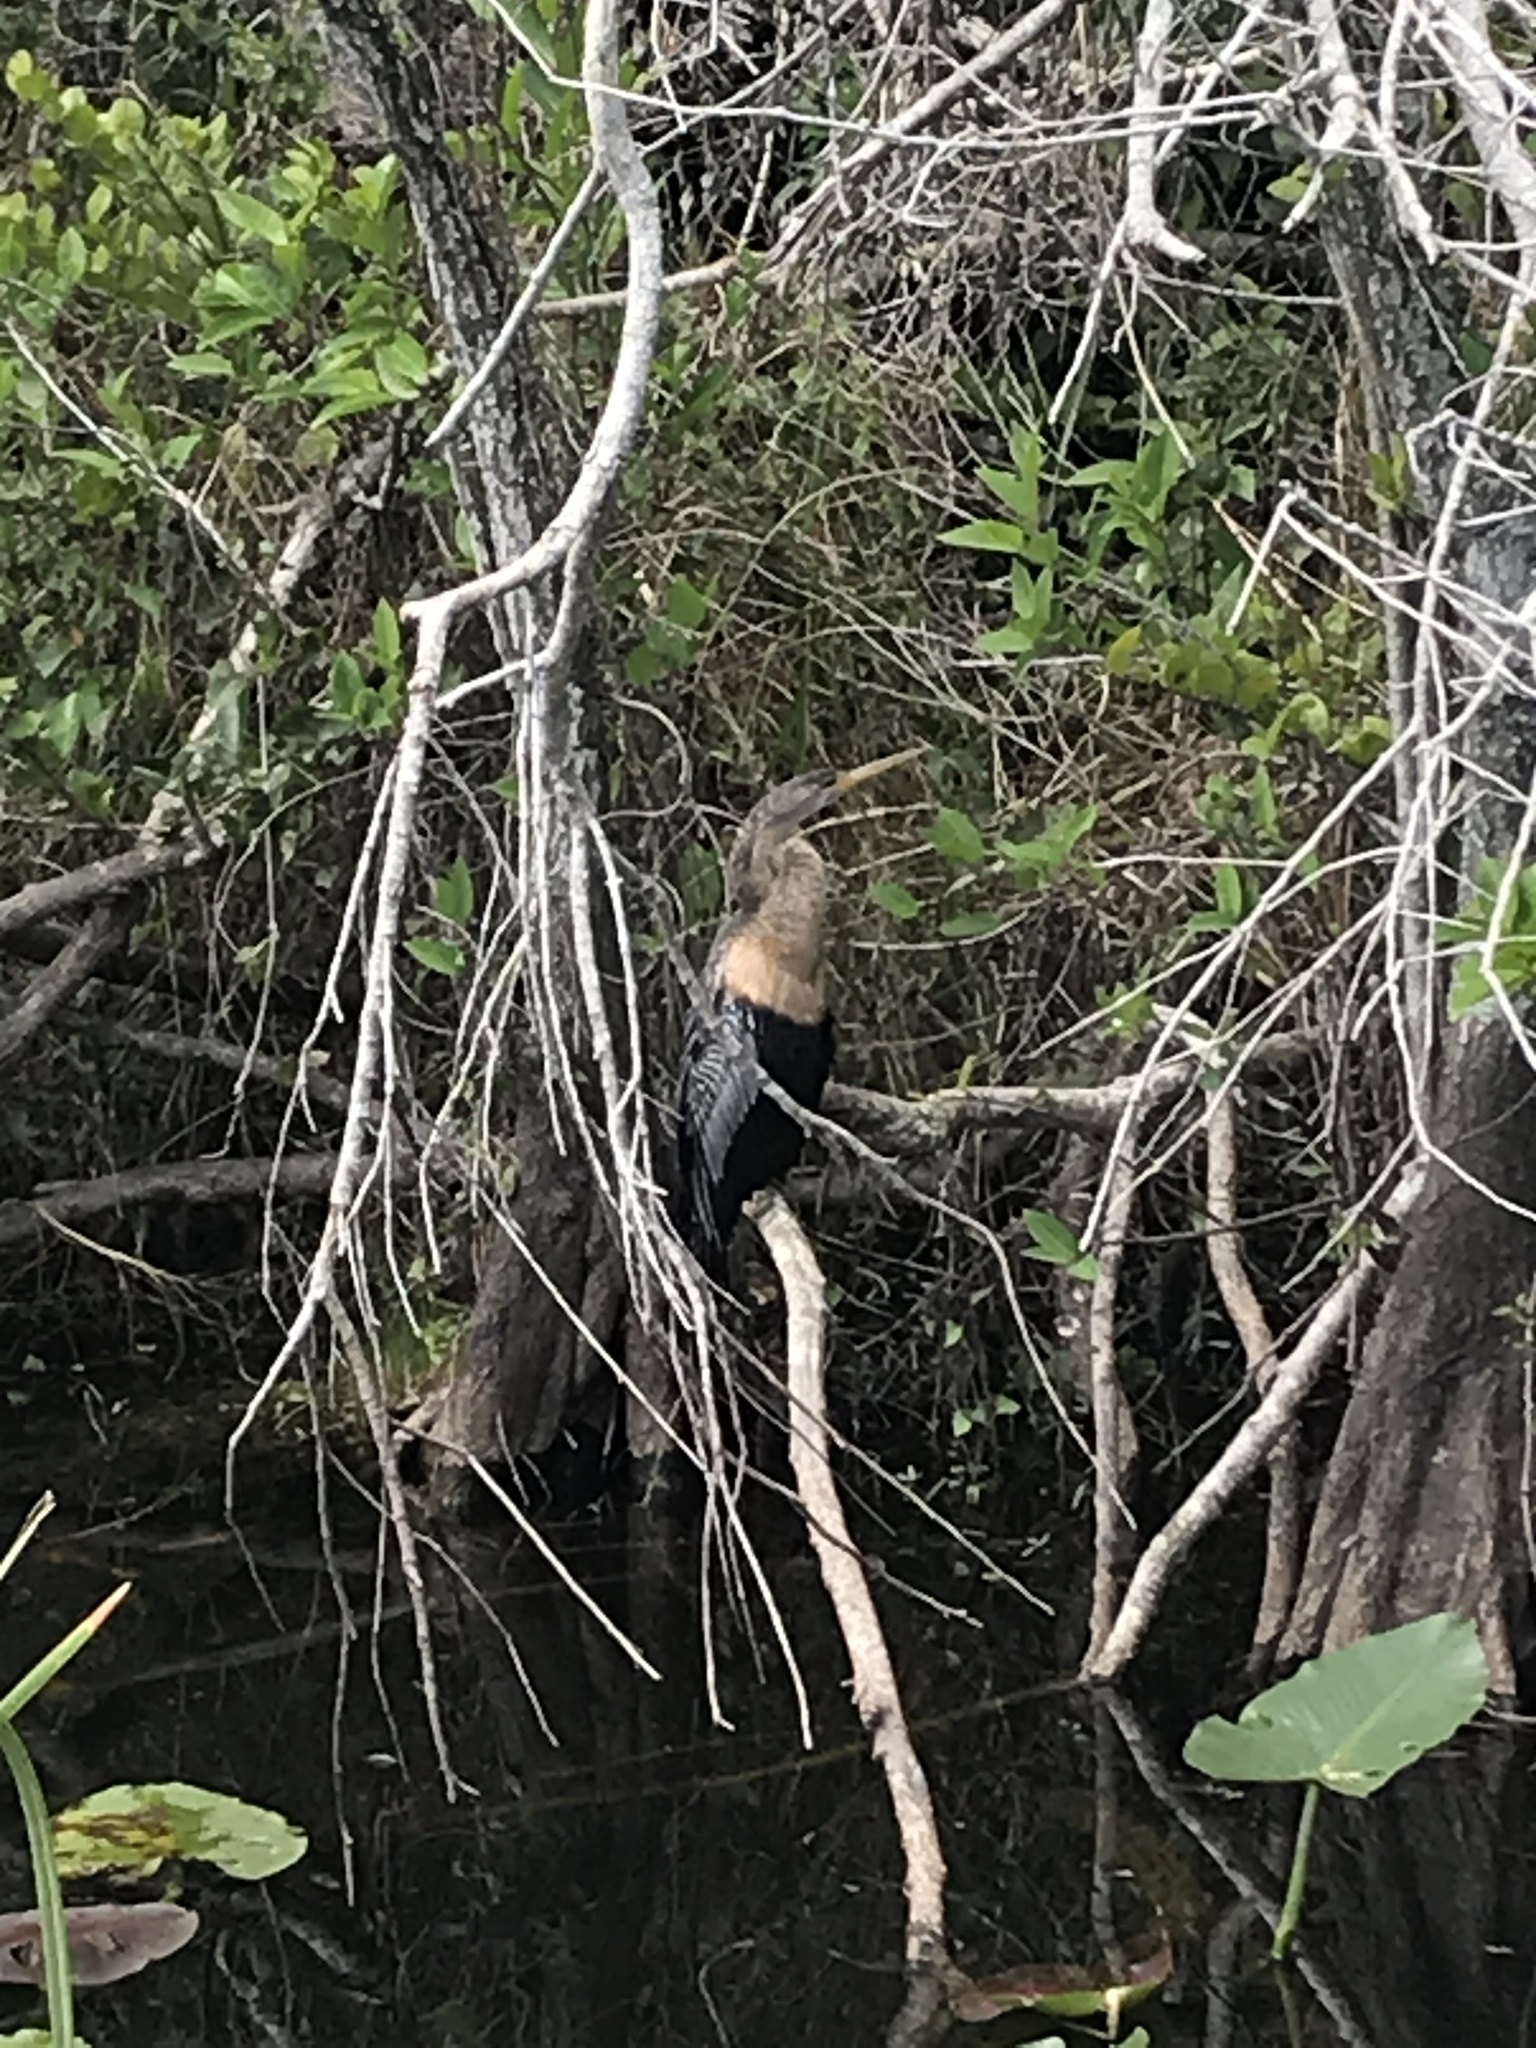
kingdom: Animalia
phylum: Chordata
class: Aves
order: Suliformes
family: Anhingidae
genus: Anhinga
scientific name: Anhinga anhinga
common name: Anhinga
